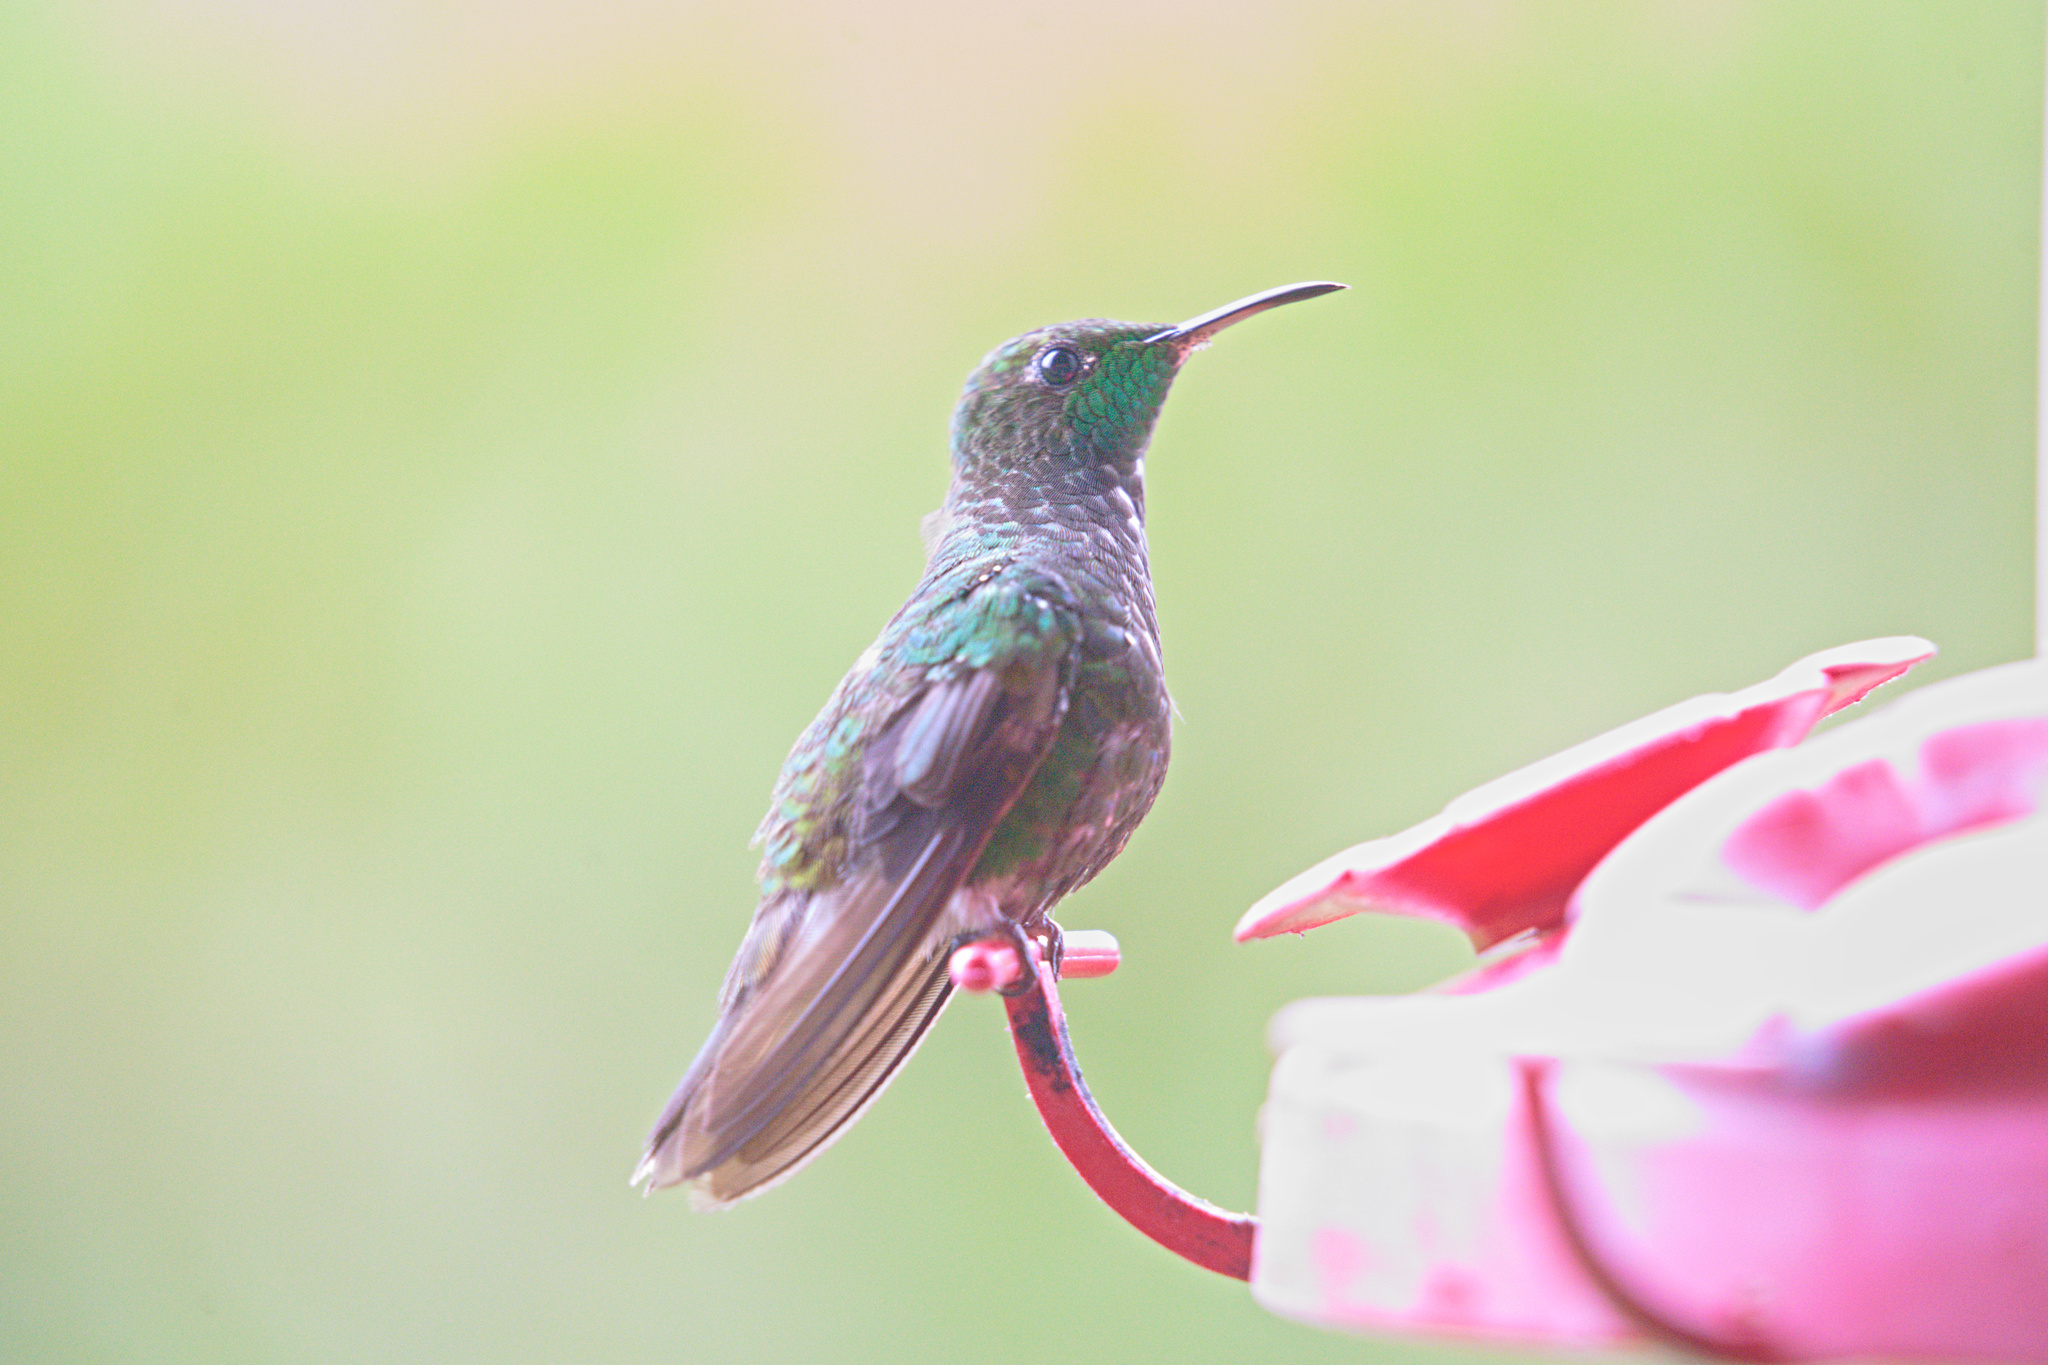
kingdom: Animalia
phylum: Chordata
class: Aves
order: Apodiformes
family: Trochilidae
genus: Microchera
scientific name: Microchera cupreiceps
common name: Coppery-headed emerald
